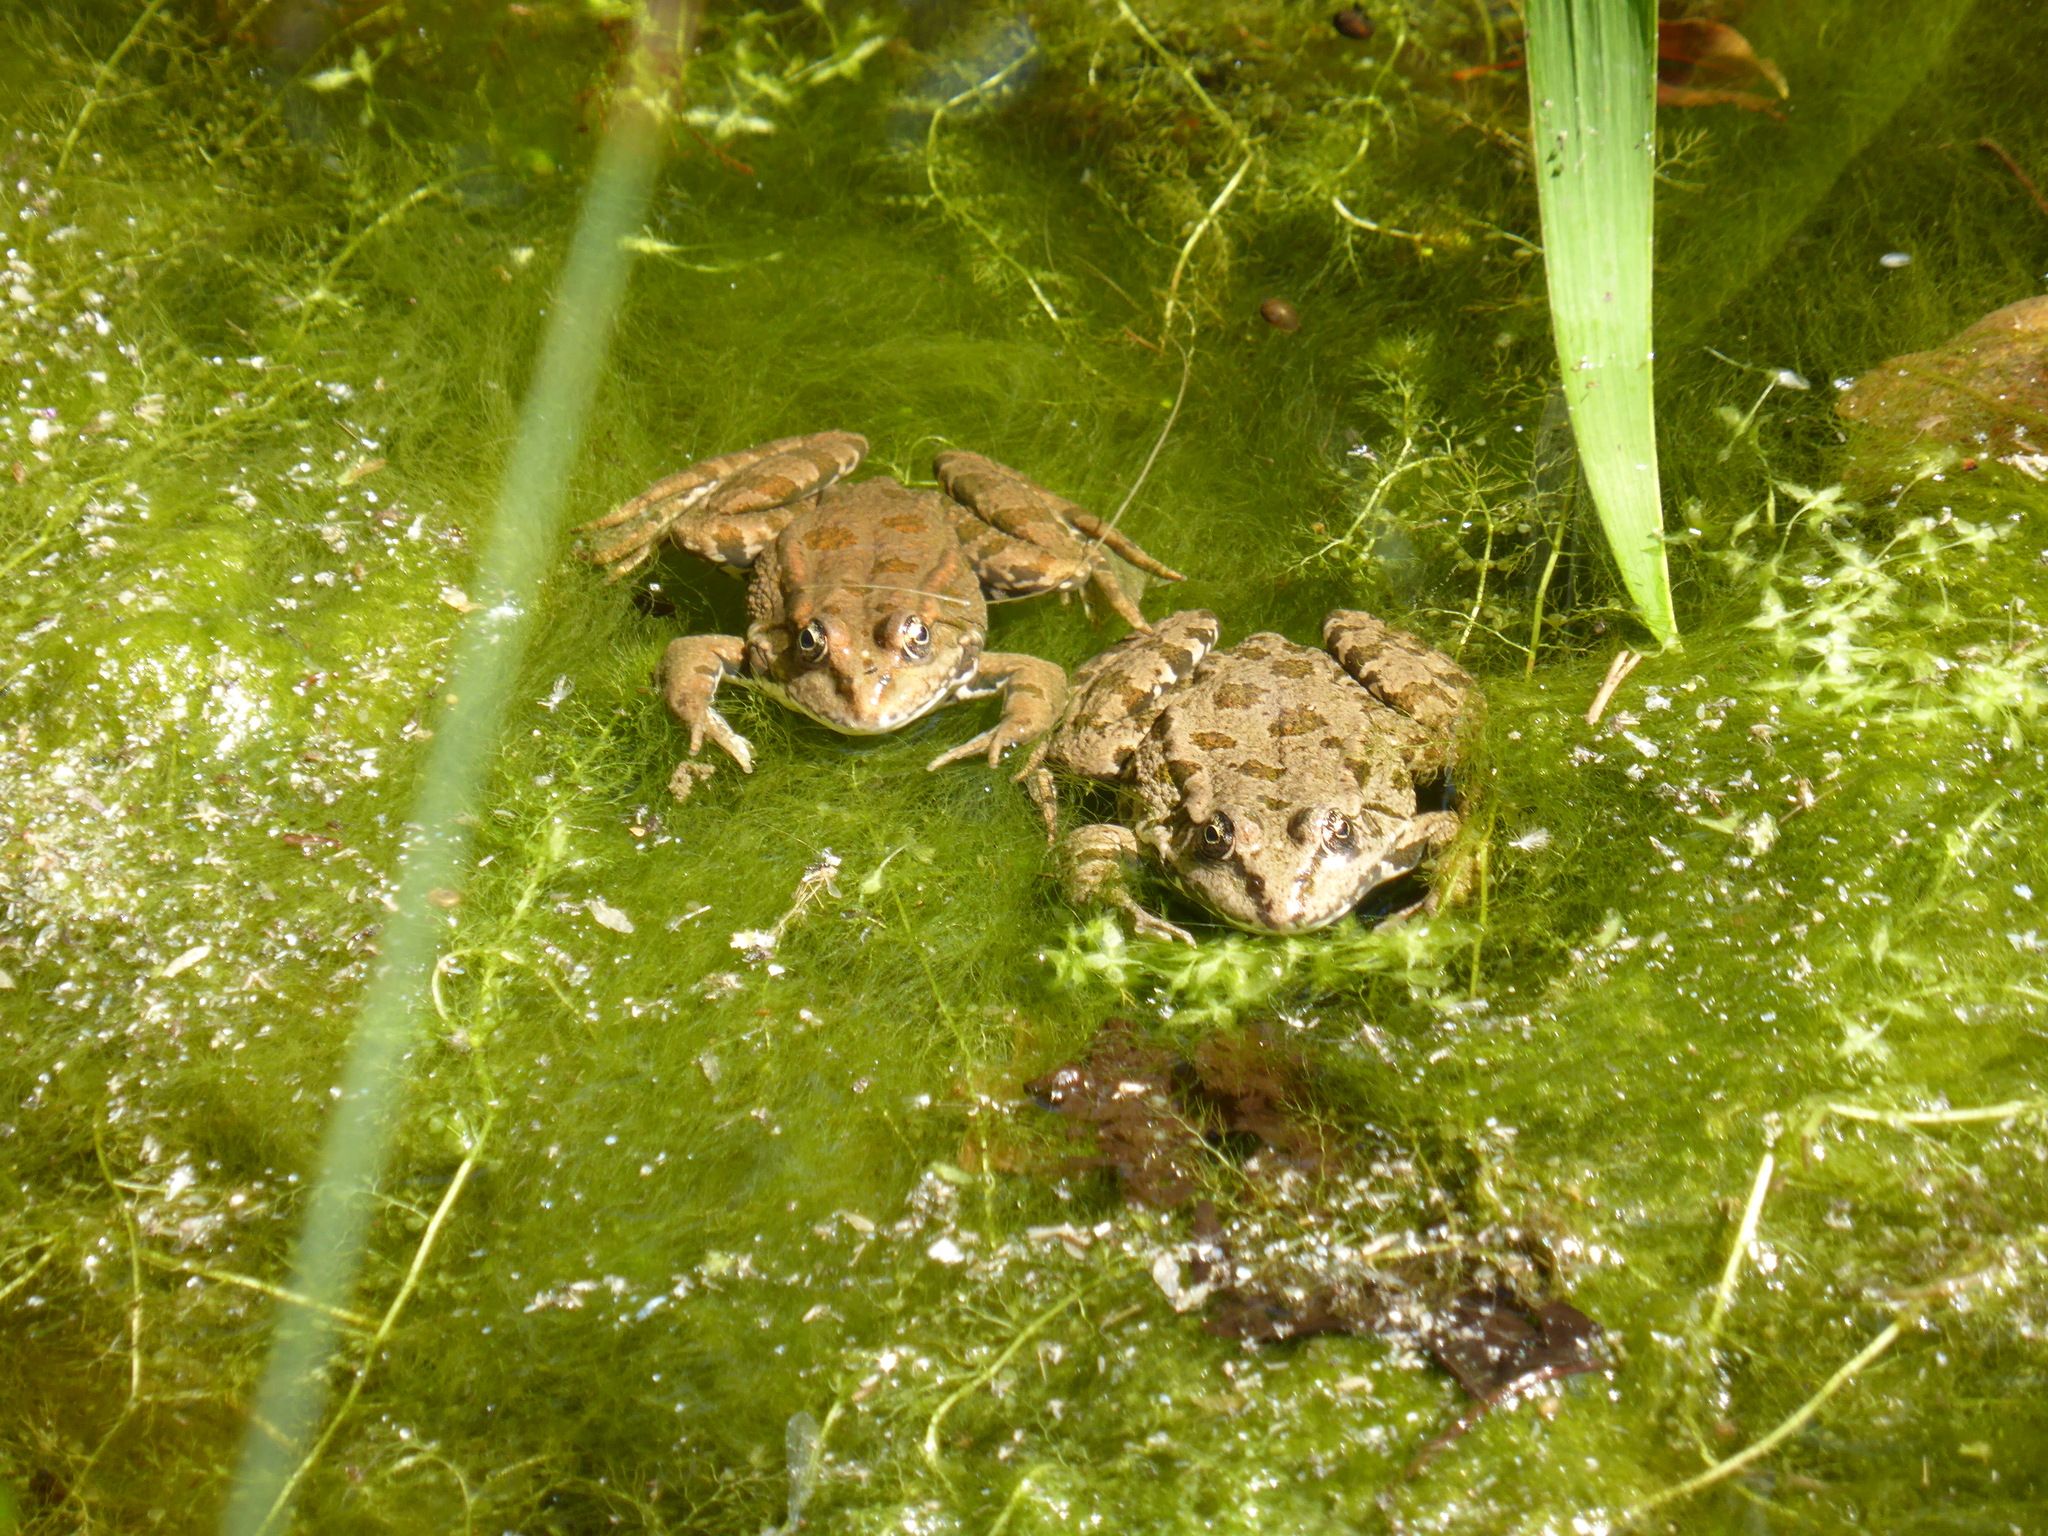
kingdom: Animalia
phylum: Chordata
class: Amphibia
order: Anura
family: Ranidae
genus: Pelophylax
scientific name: Pelophylax
